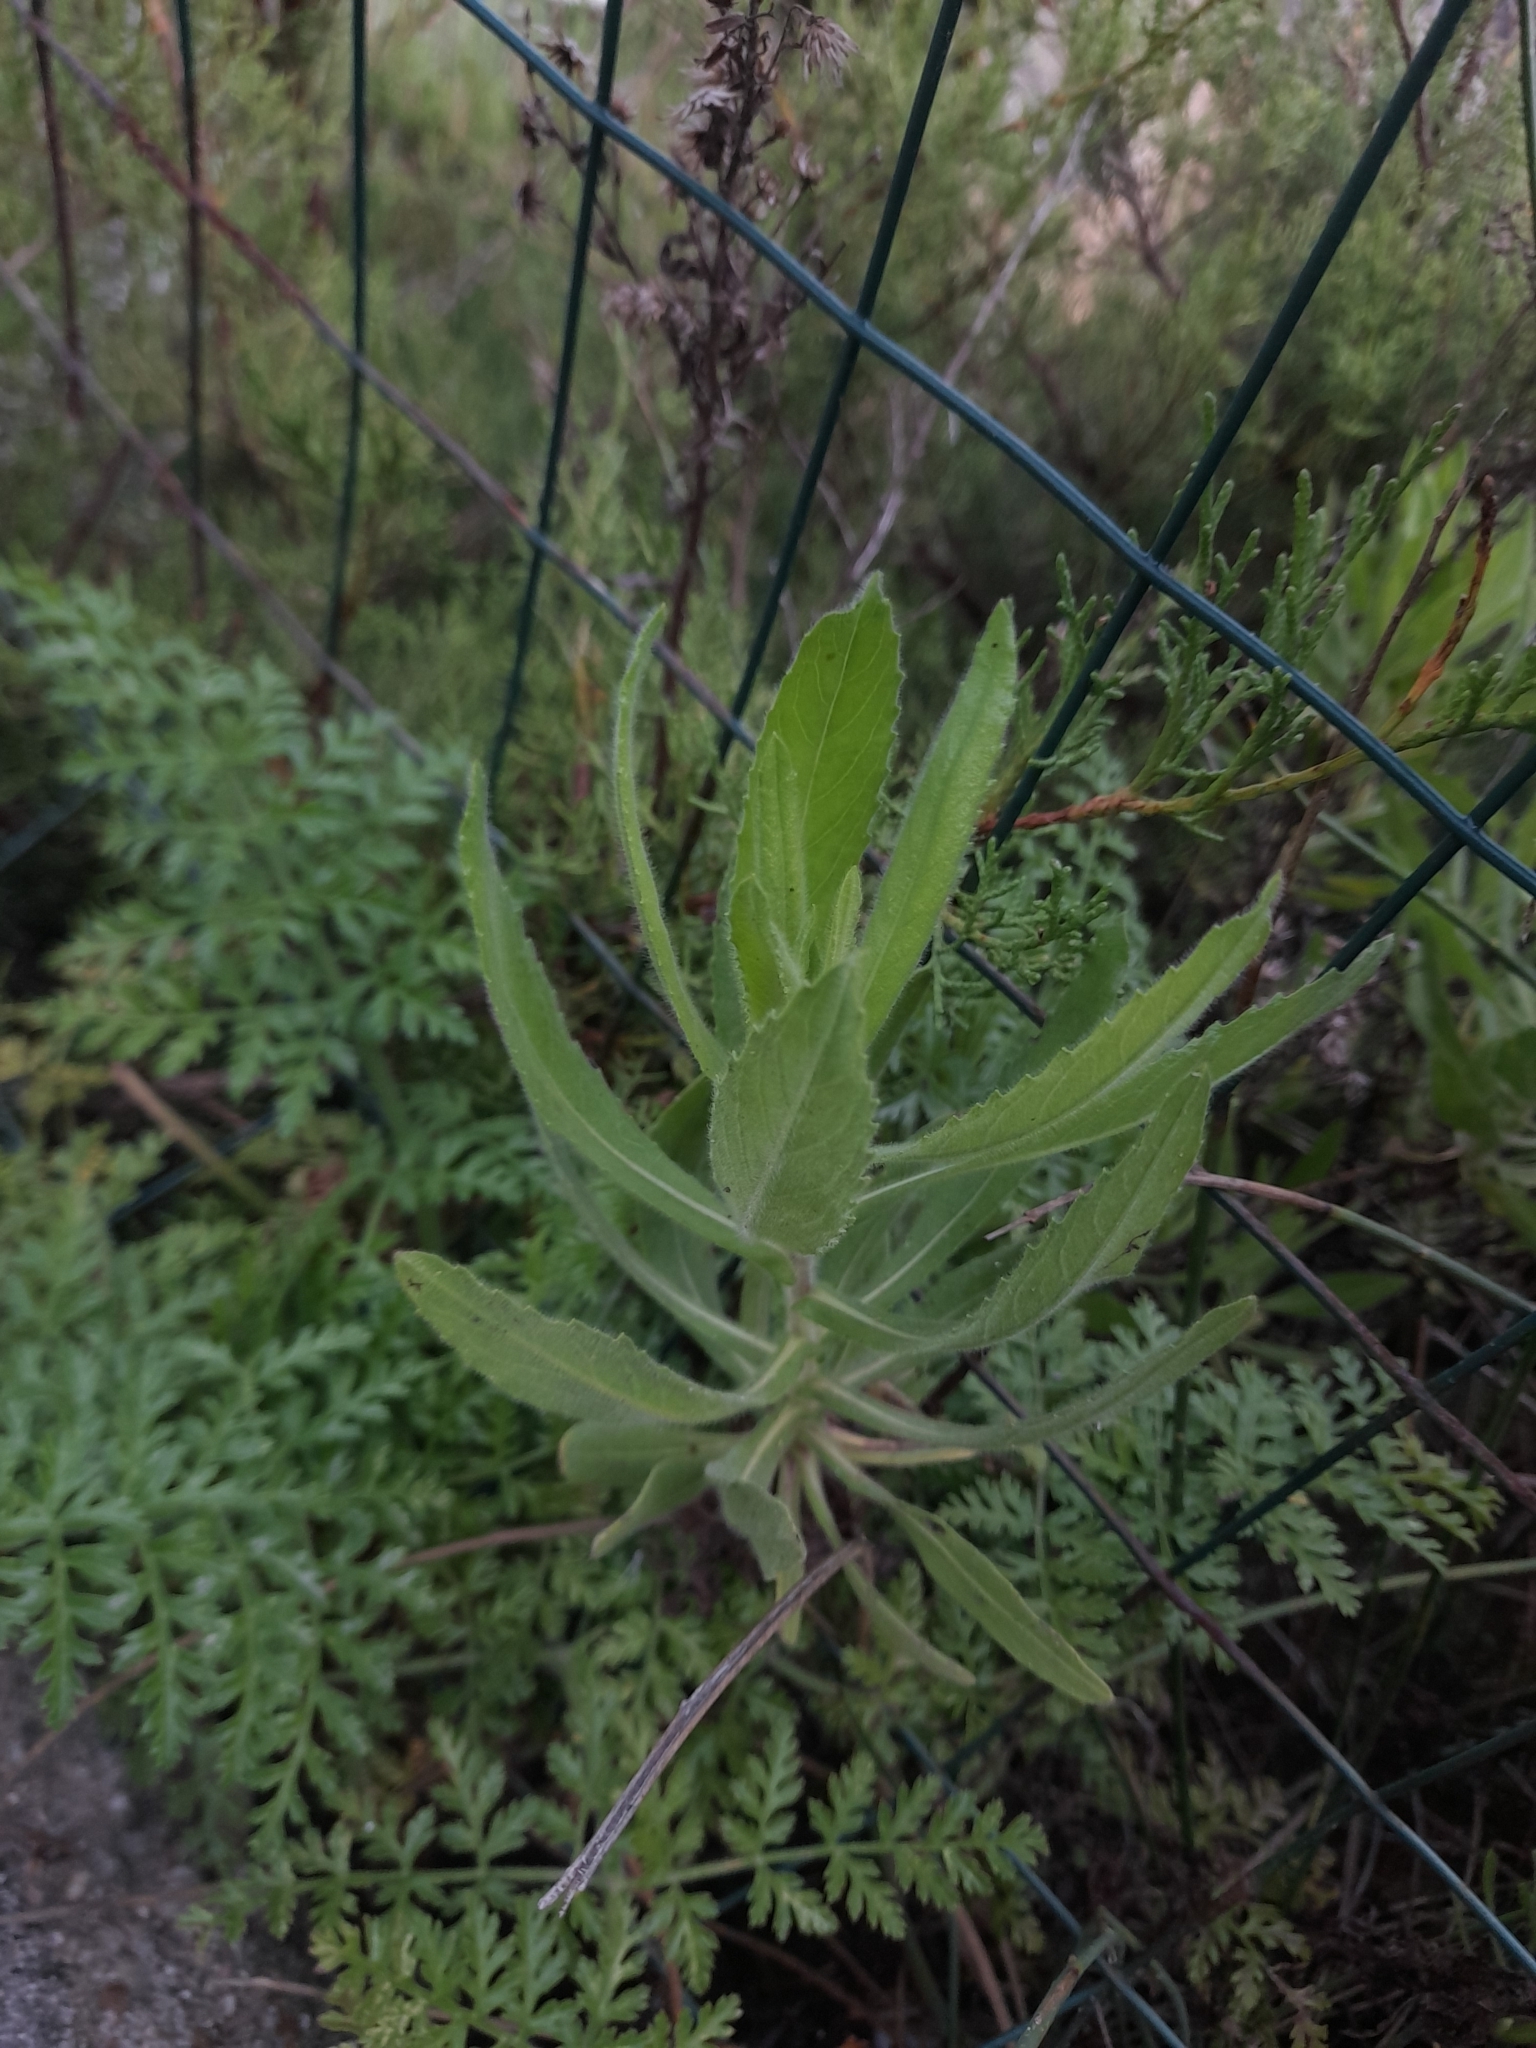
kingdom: Plantae
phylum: Tracheophyta
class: Magnoliopsida
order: Asterales
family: Asteraceae
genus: Dittrichia
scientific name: Dittrichia viscosa
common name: Woody fleabane
